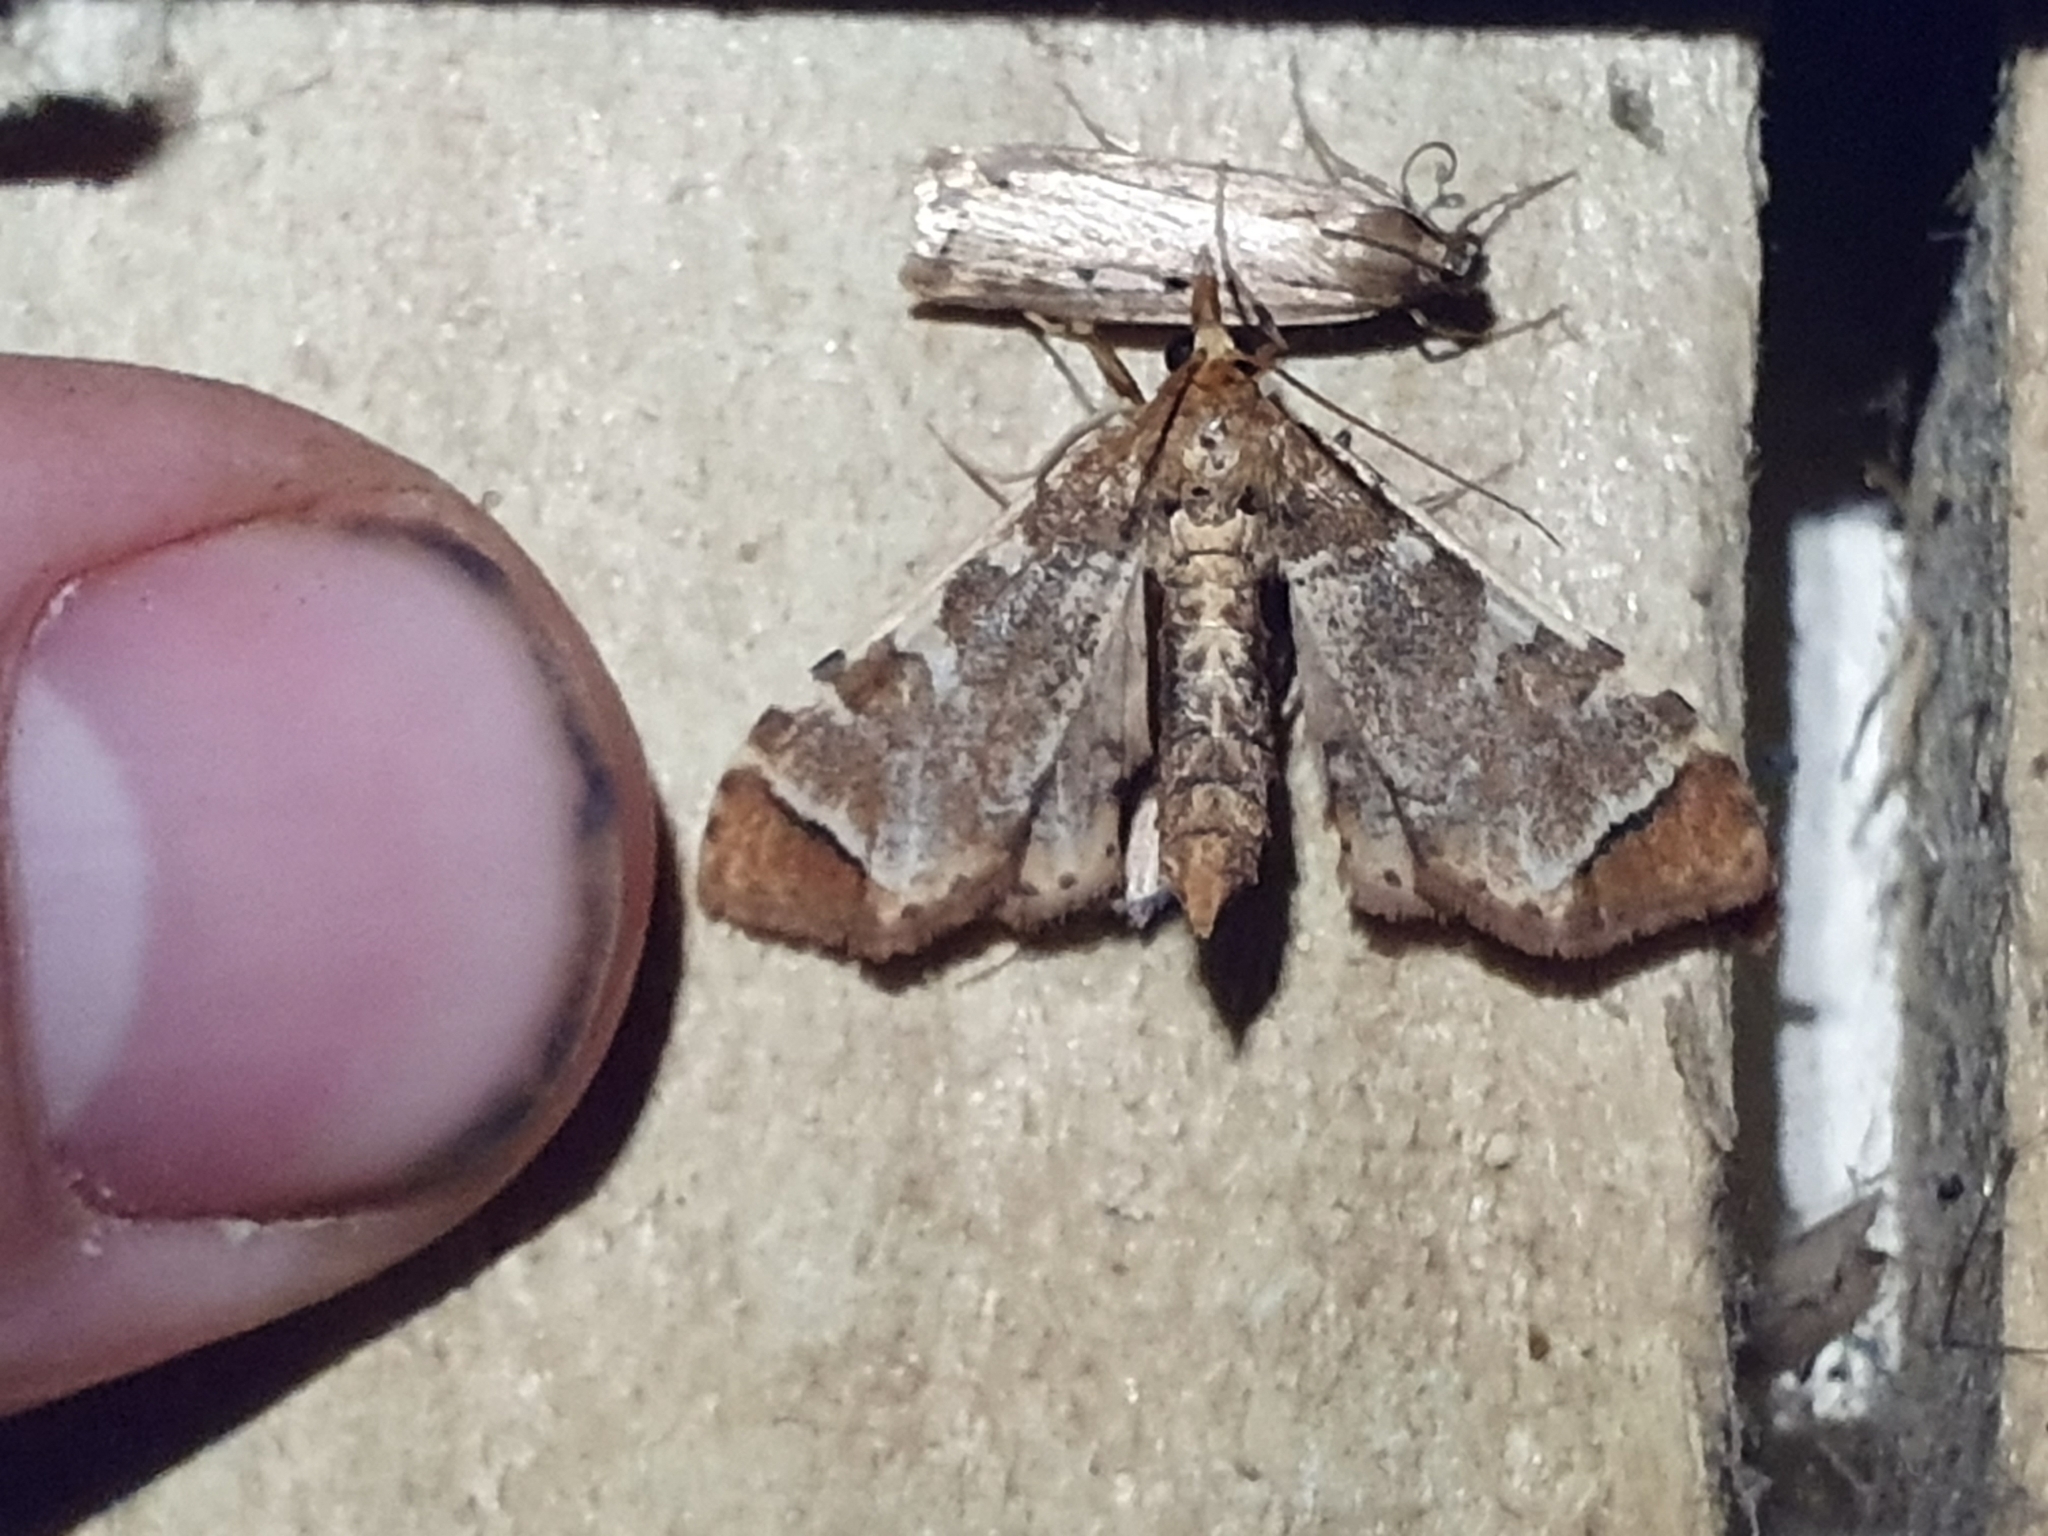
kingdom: Animalia
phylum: Arthropoda
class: Insecta
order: Lepidoptera
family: Crambidae
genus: Sceliodes
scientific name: Sceliodes cordalis
